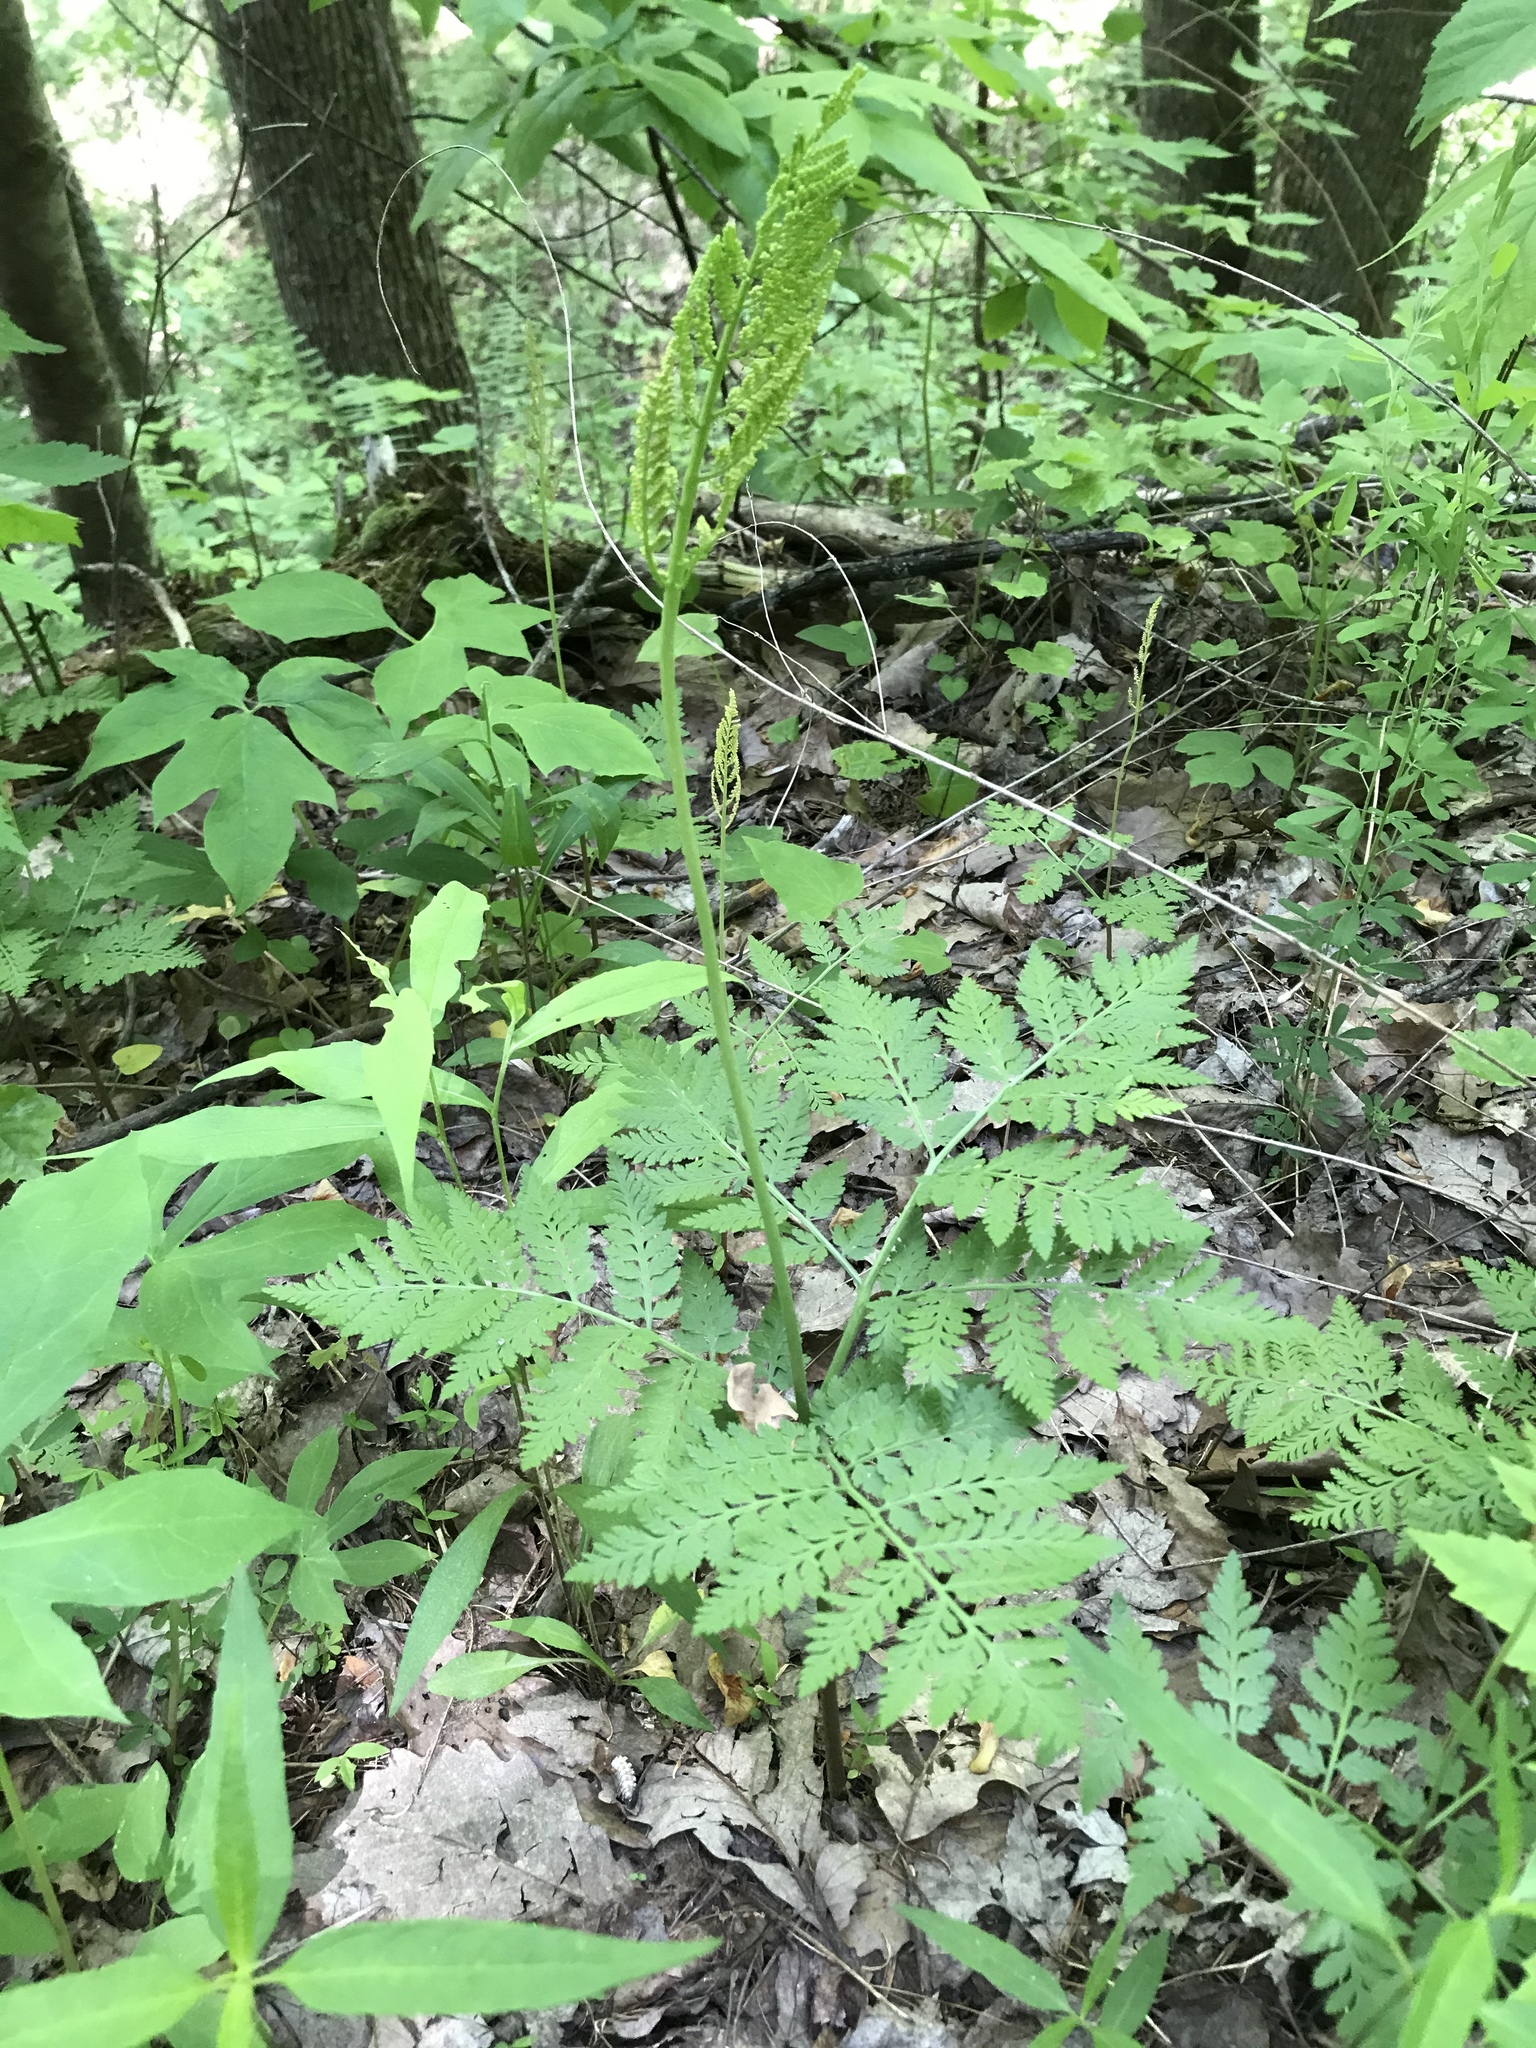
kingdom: Plantae
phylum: Tracheophyta
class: Polypodiopsida
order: Ophioglossales
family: Ophioglossaceae
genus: Botrypus
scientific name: Botrypus virginianus
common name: Common grapefern
